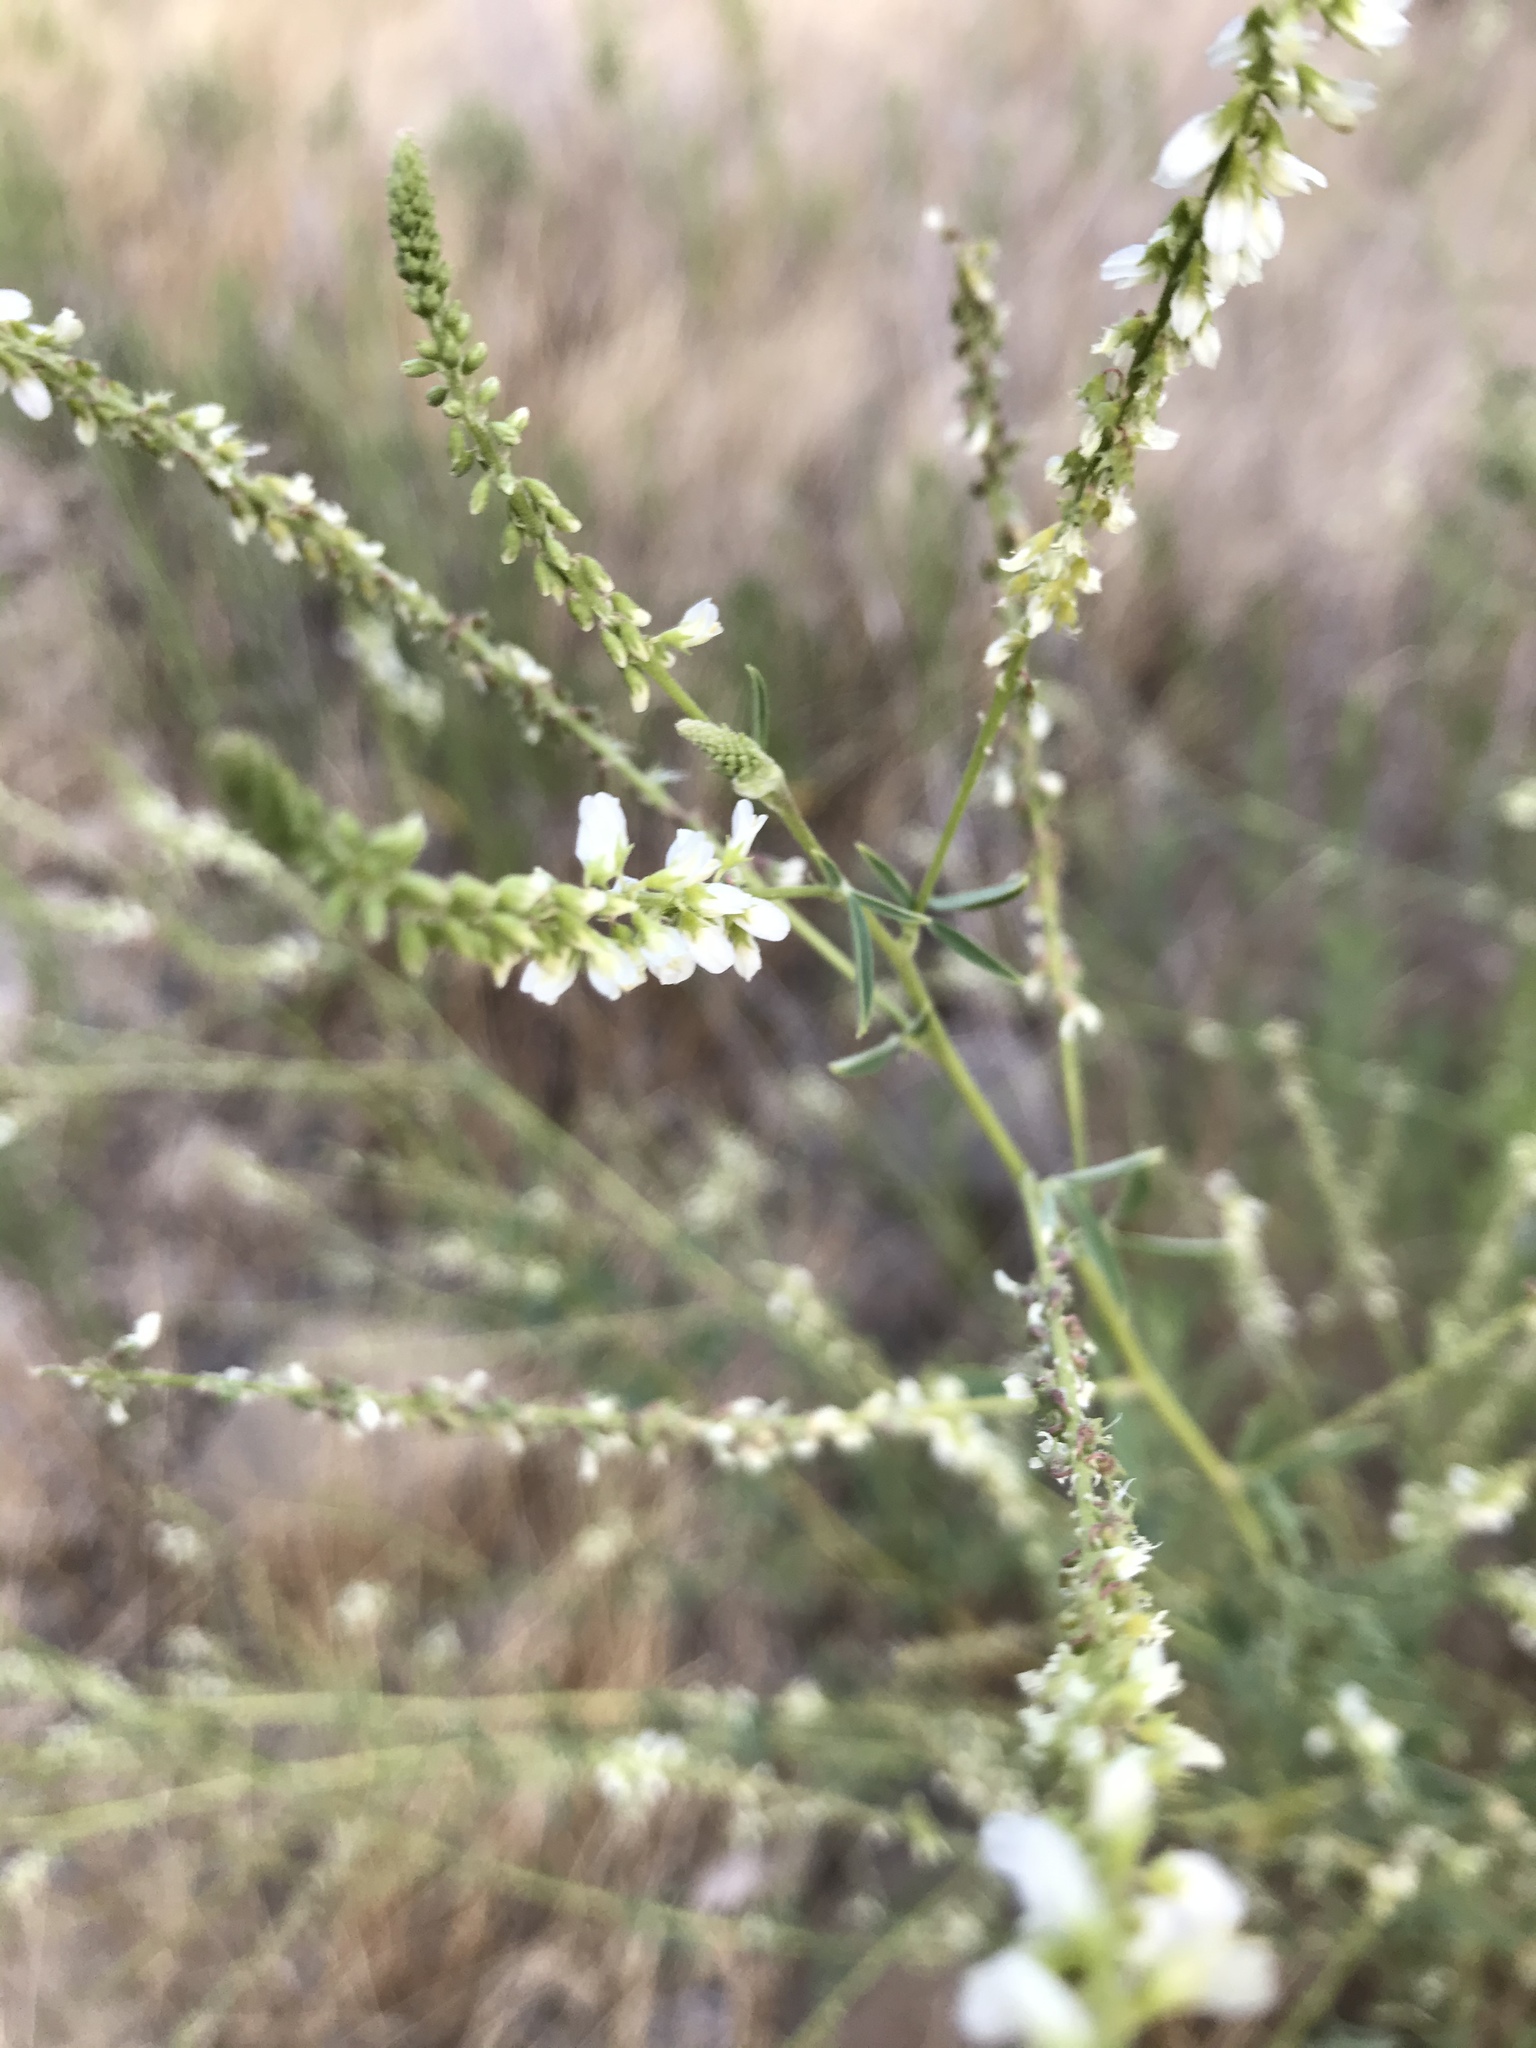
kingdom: Plantae
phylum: Tracheophyta
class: Magnoliopsida
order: Fabales
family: Fabaceae
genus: Melilotus
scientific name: Melilotus albus
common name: White melilot
